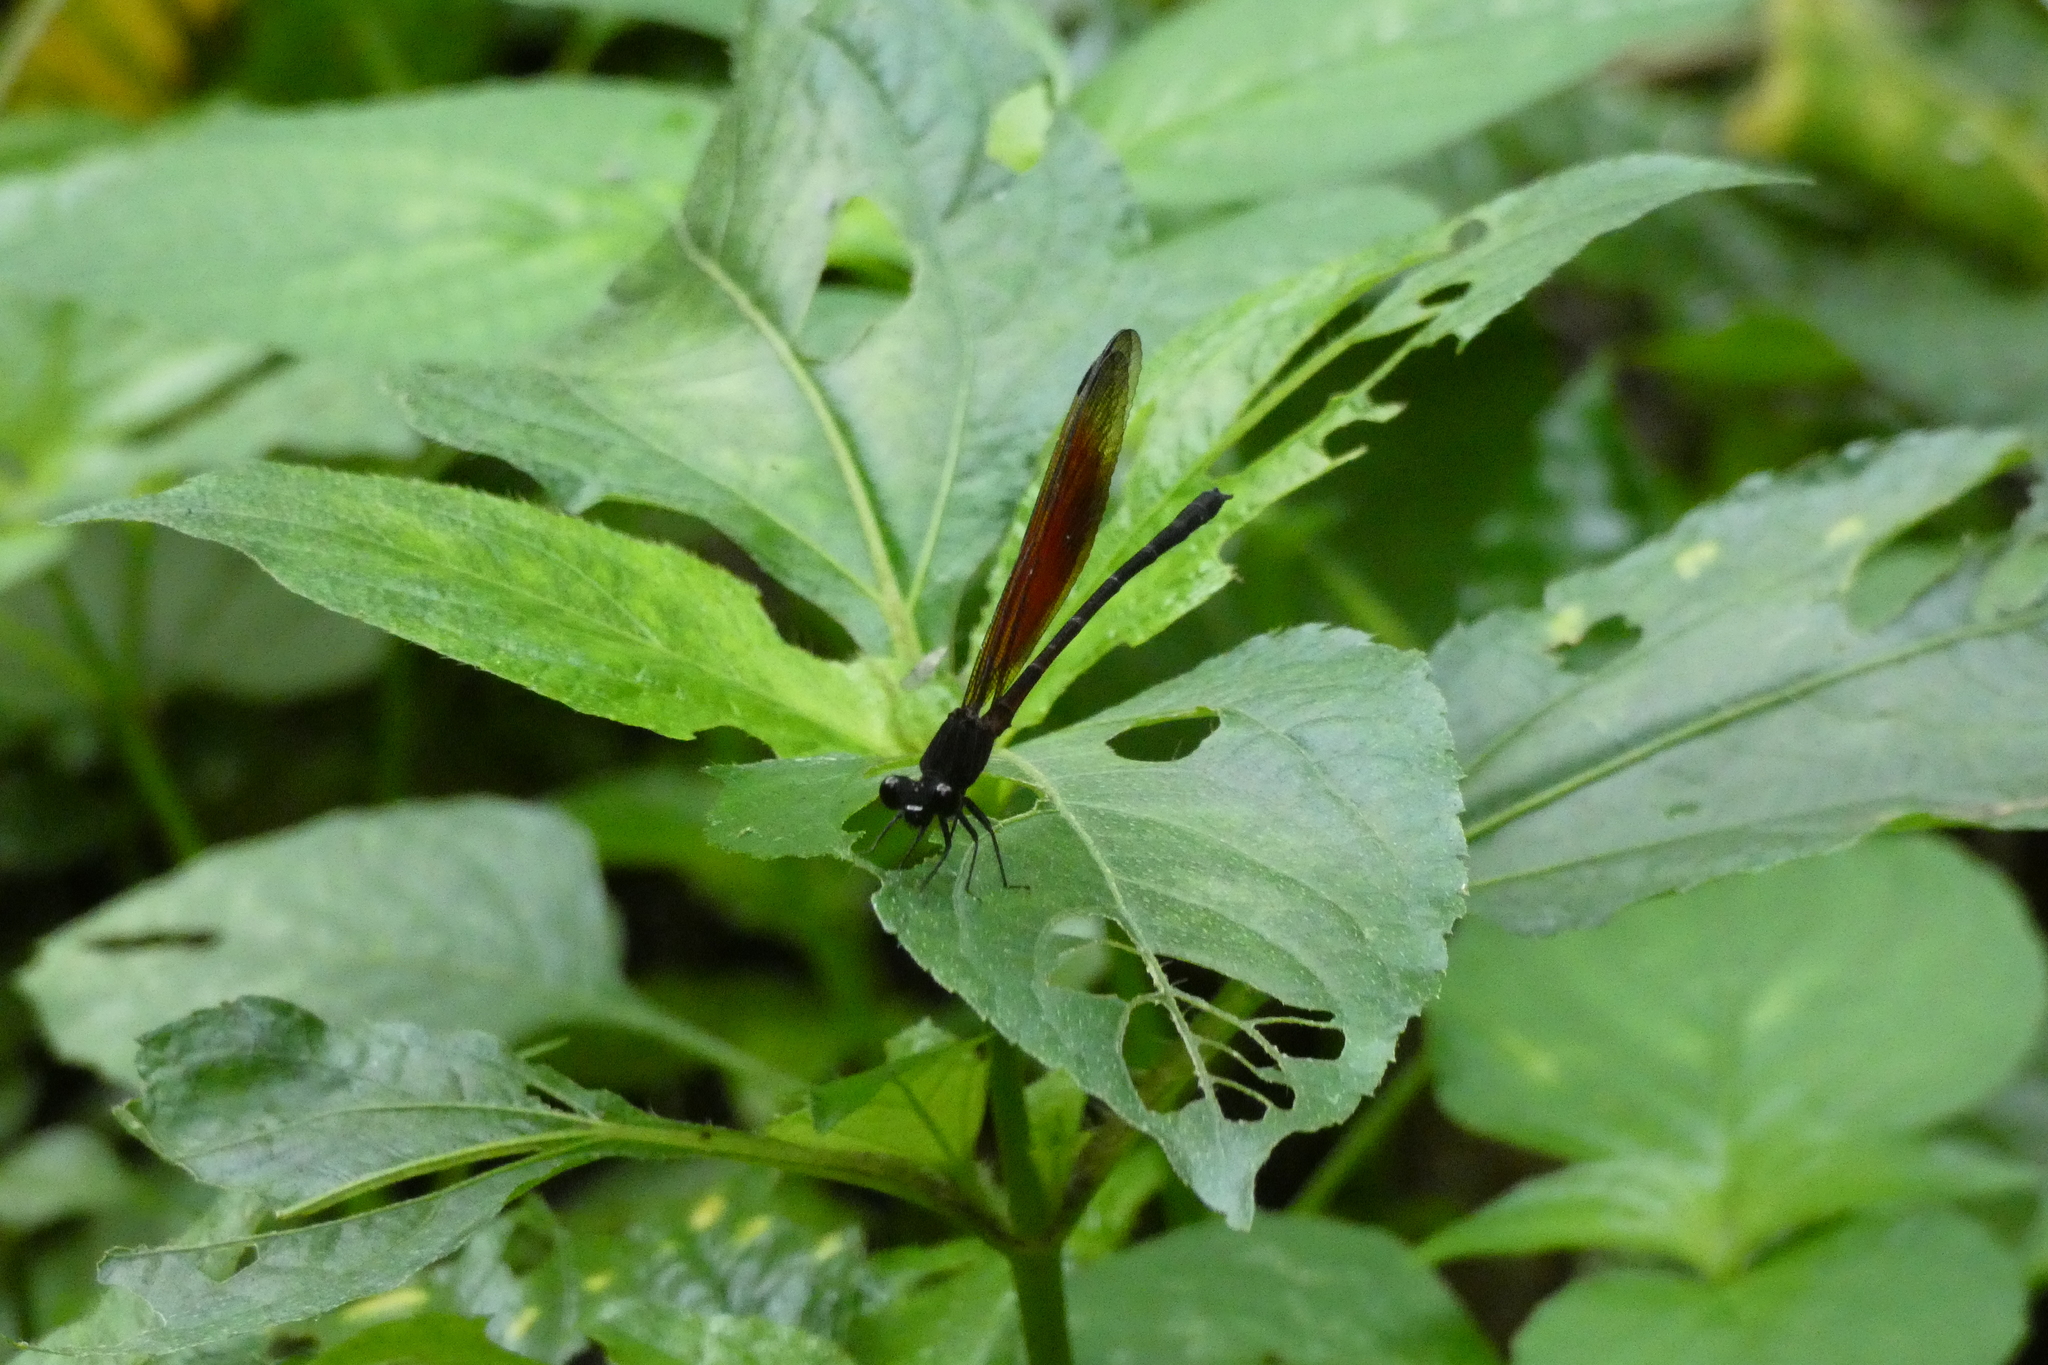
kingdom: Animalia
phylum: Arthropoda
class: Insecta
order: Odonata
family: Euphaeidae
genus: Euphaea
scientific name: Euphaea ochracea
